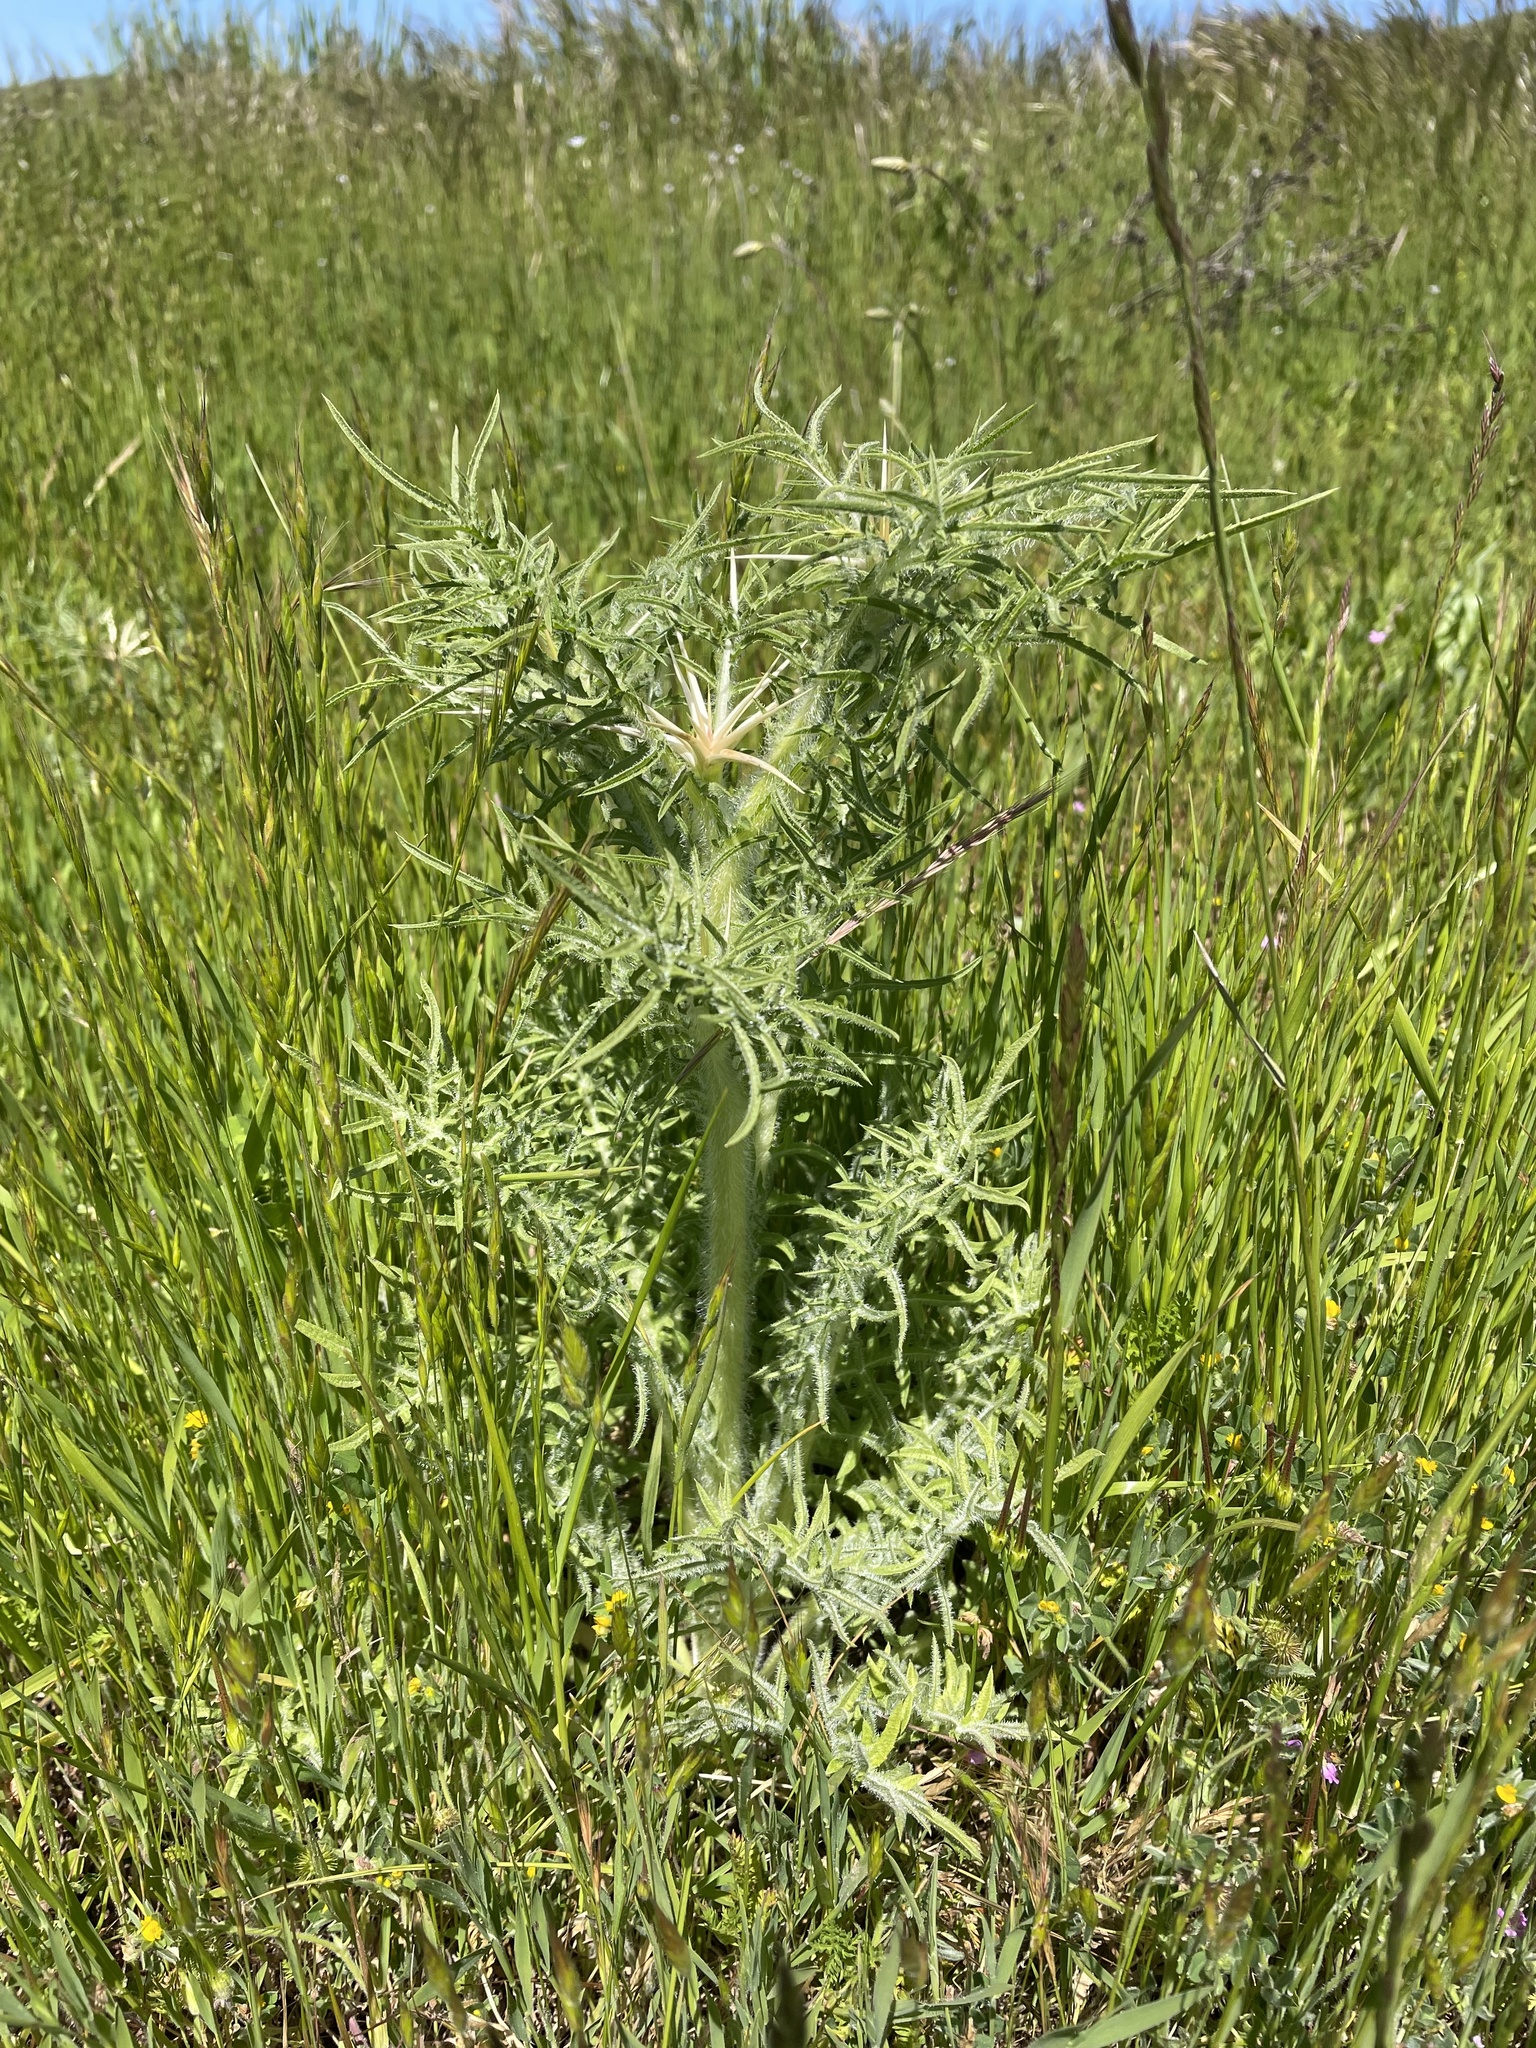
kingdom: Plantae
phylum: Tracheophyta
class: Magnoliopsida
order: Asterales
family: Asteraceae
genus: Centaurea
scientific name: Centaurea calcitrapa
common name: Red star-thistle
